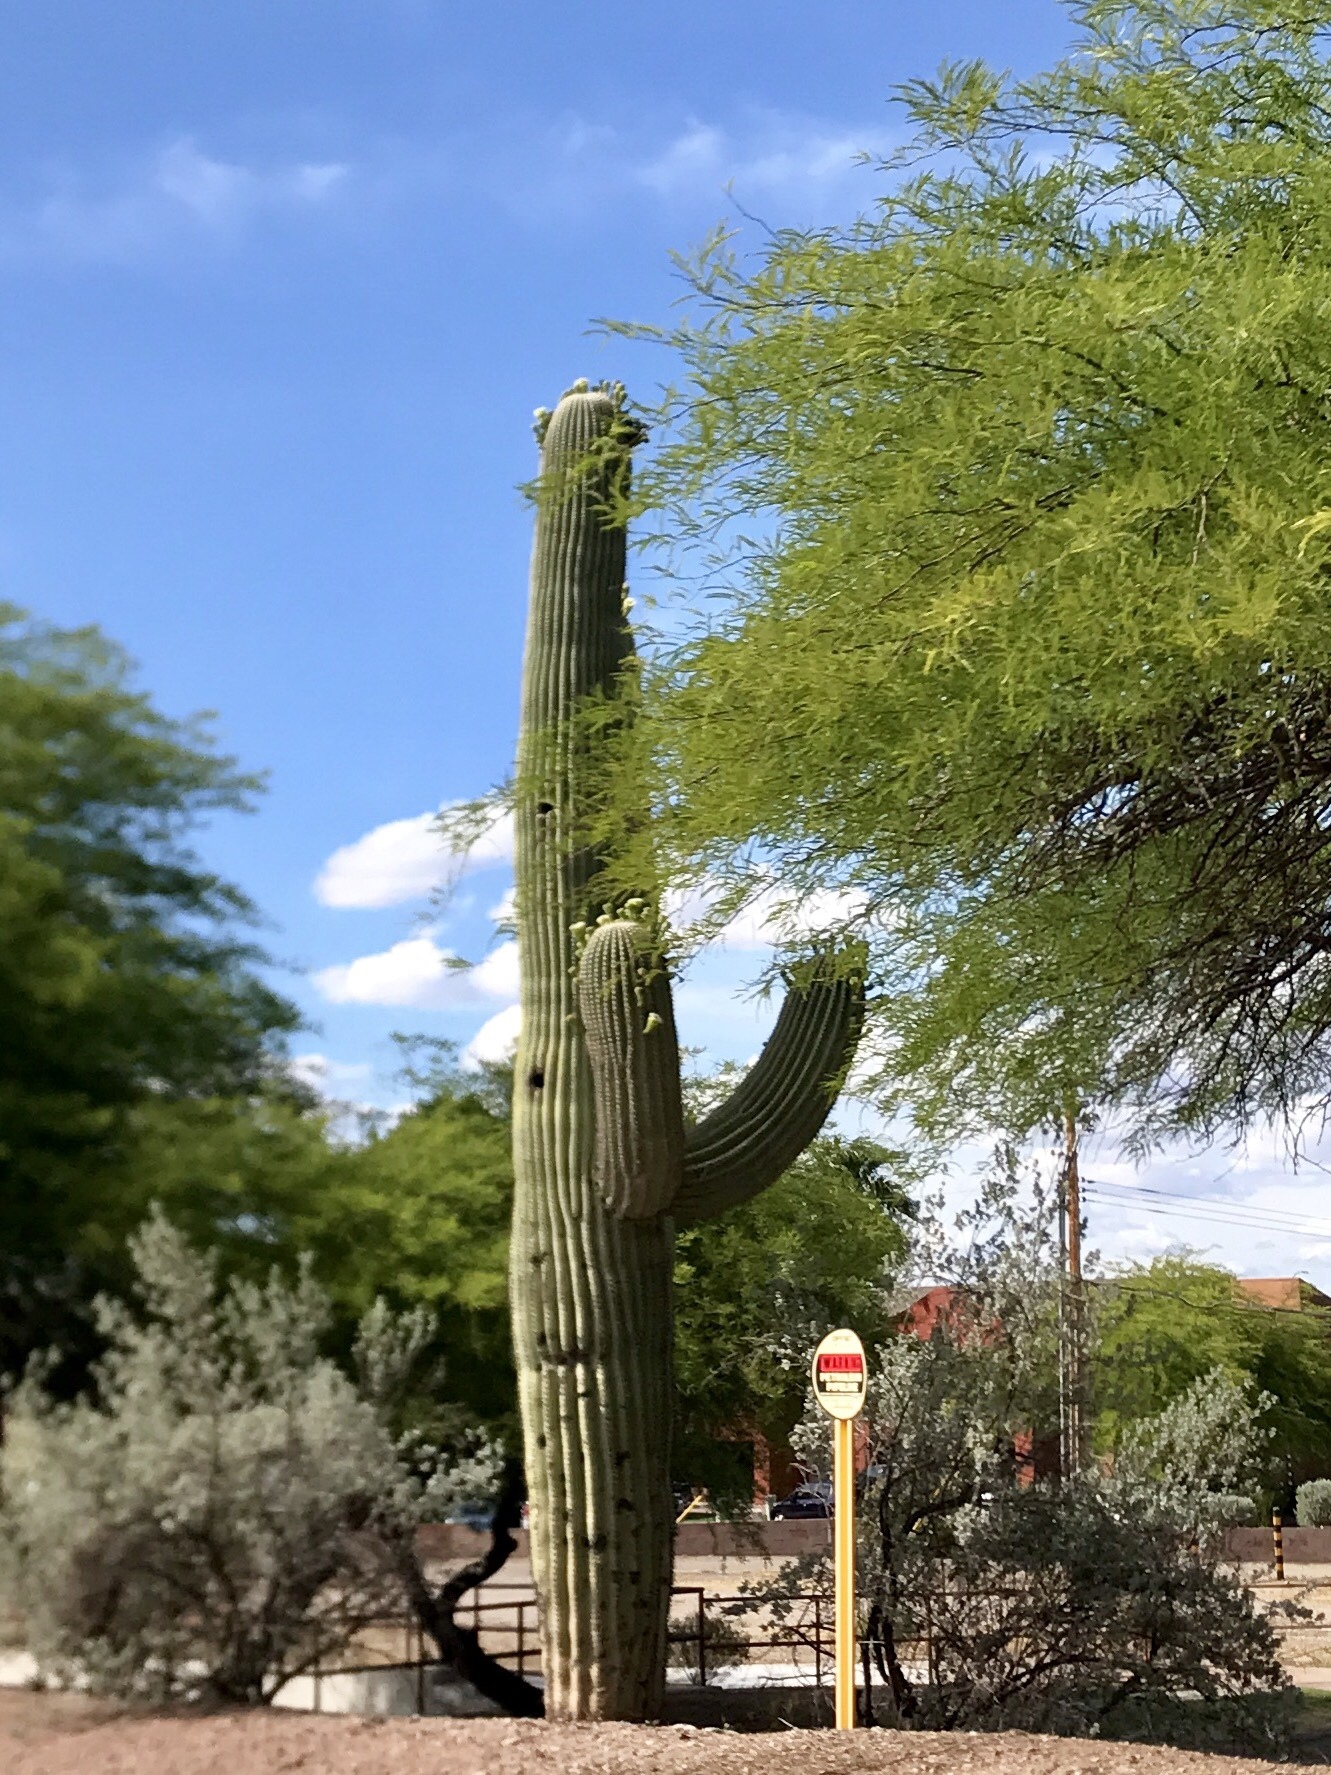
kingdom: Plantae
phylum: Tracheophyta
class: Magnoliopsida
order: Caryophyllales
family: Cactaceae
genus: Carnegiea
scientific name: Carnegiea gigantea
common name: Saguaro
